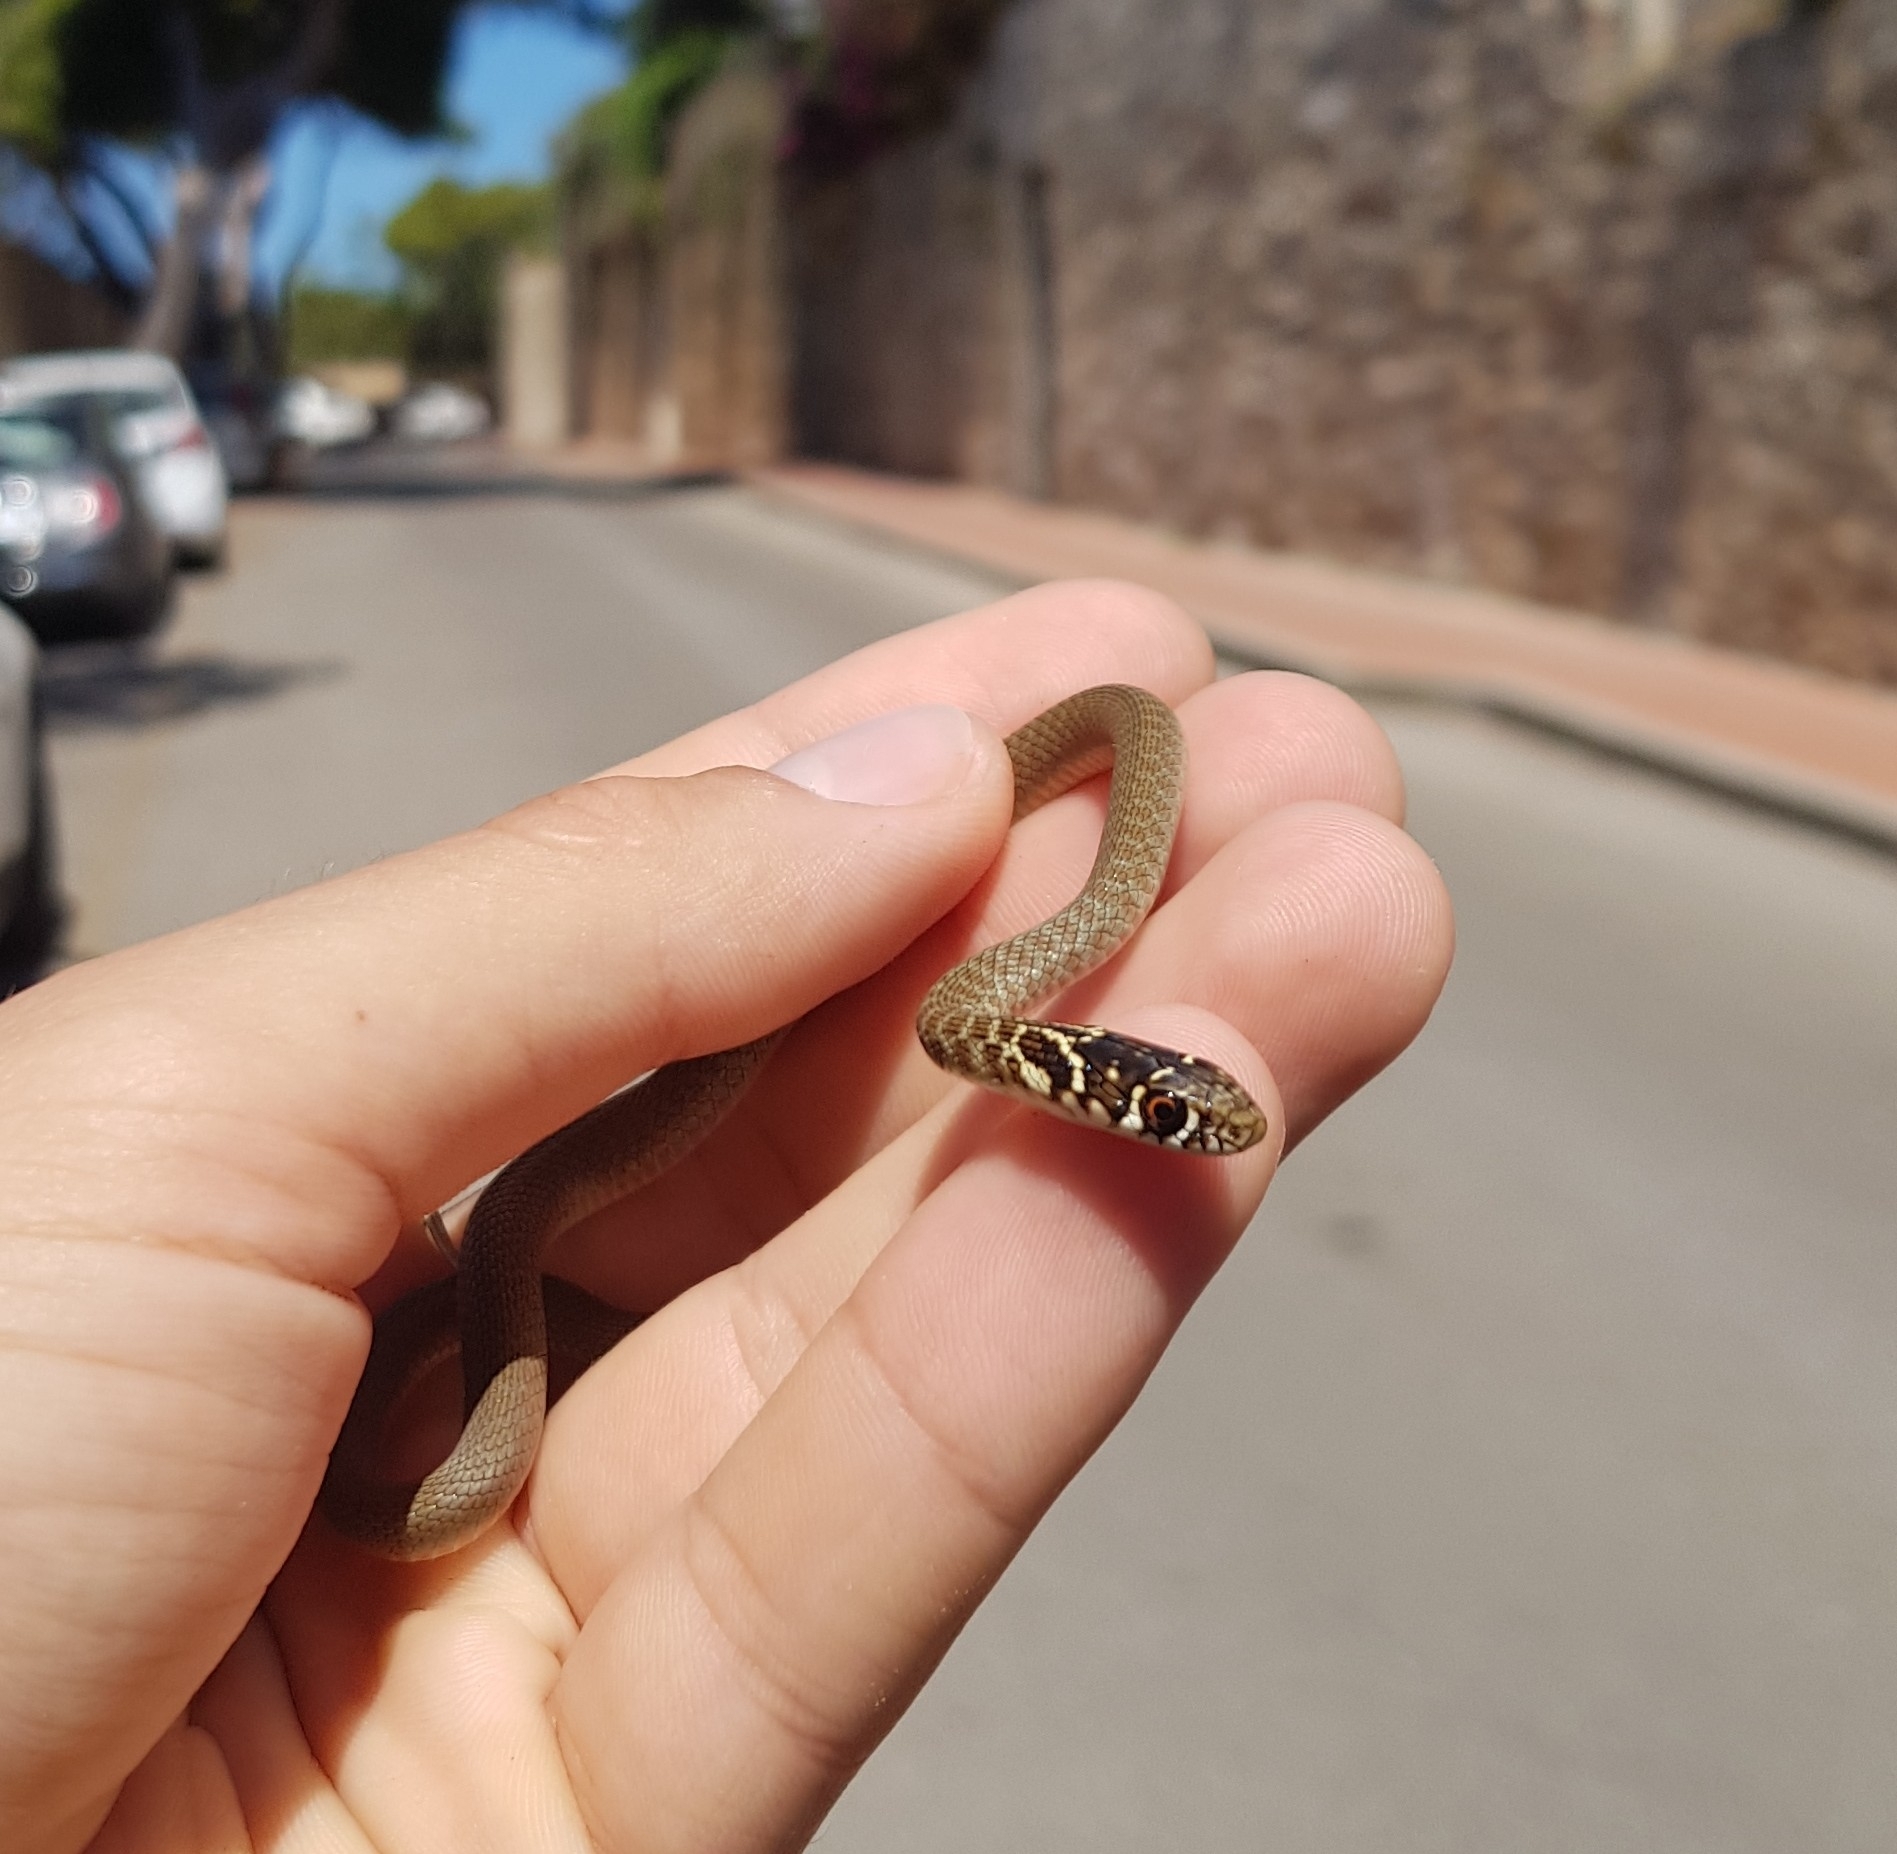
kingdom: Animalia
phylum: Chordata
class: Squamata
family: Colubridae
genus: Hierophis
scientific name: Hierophis viridiflavus
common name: Green whip snake
